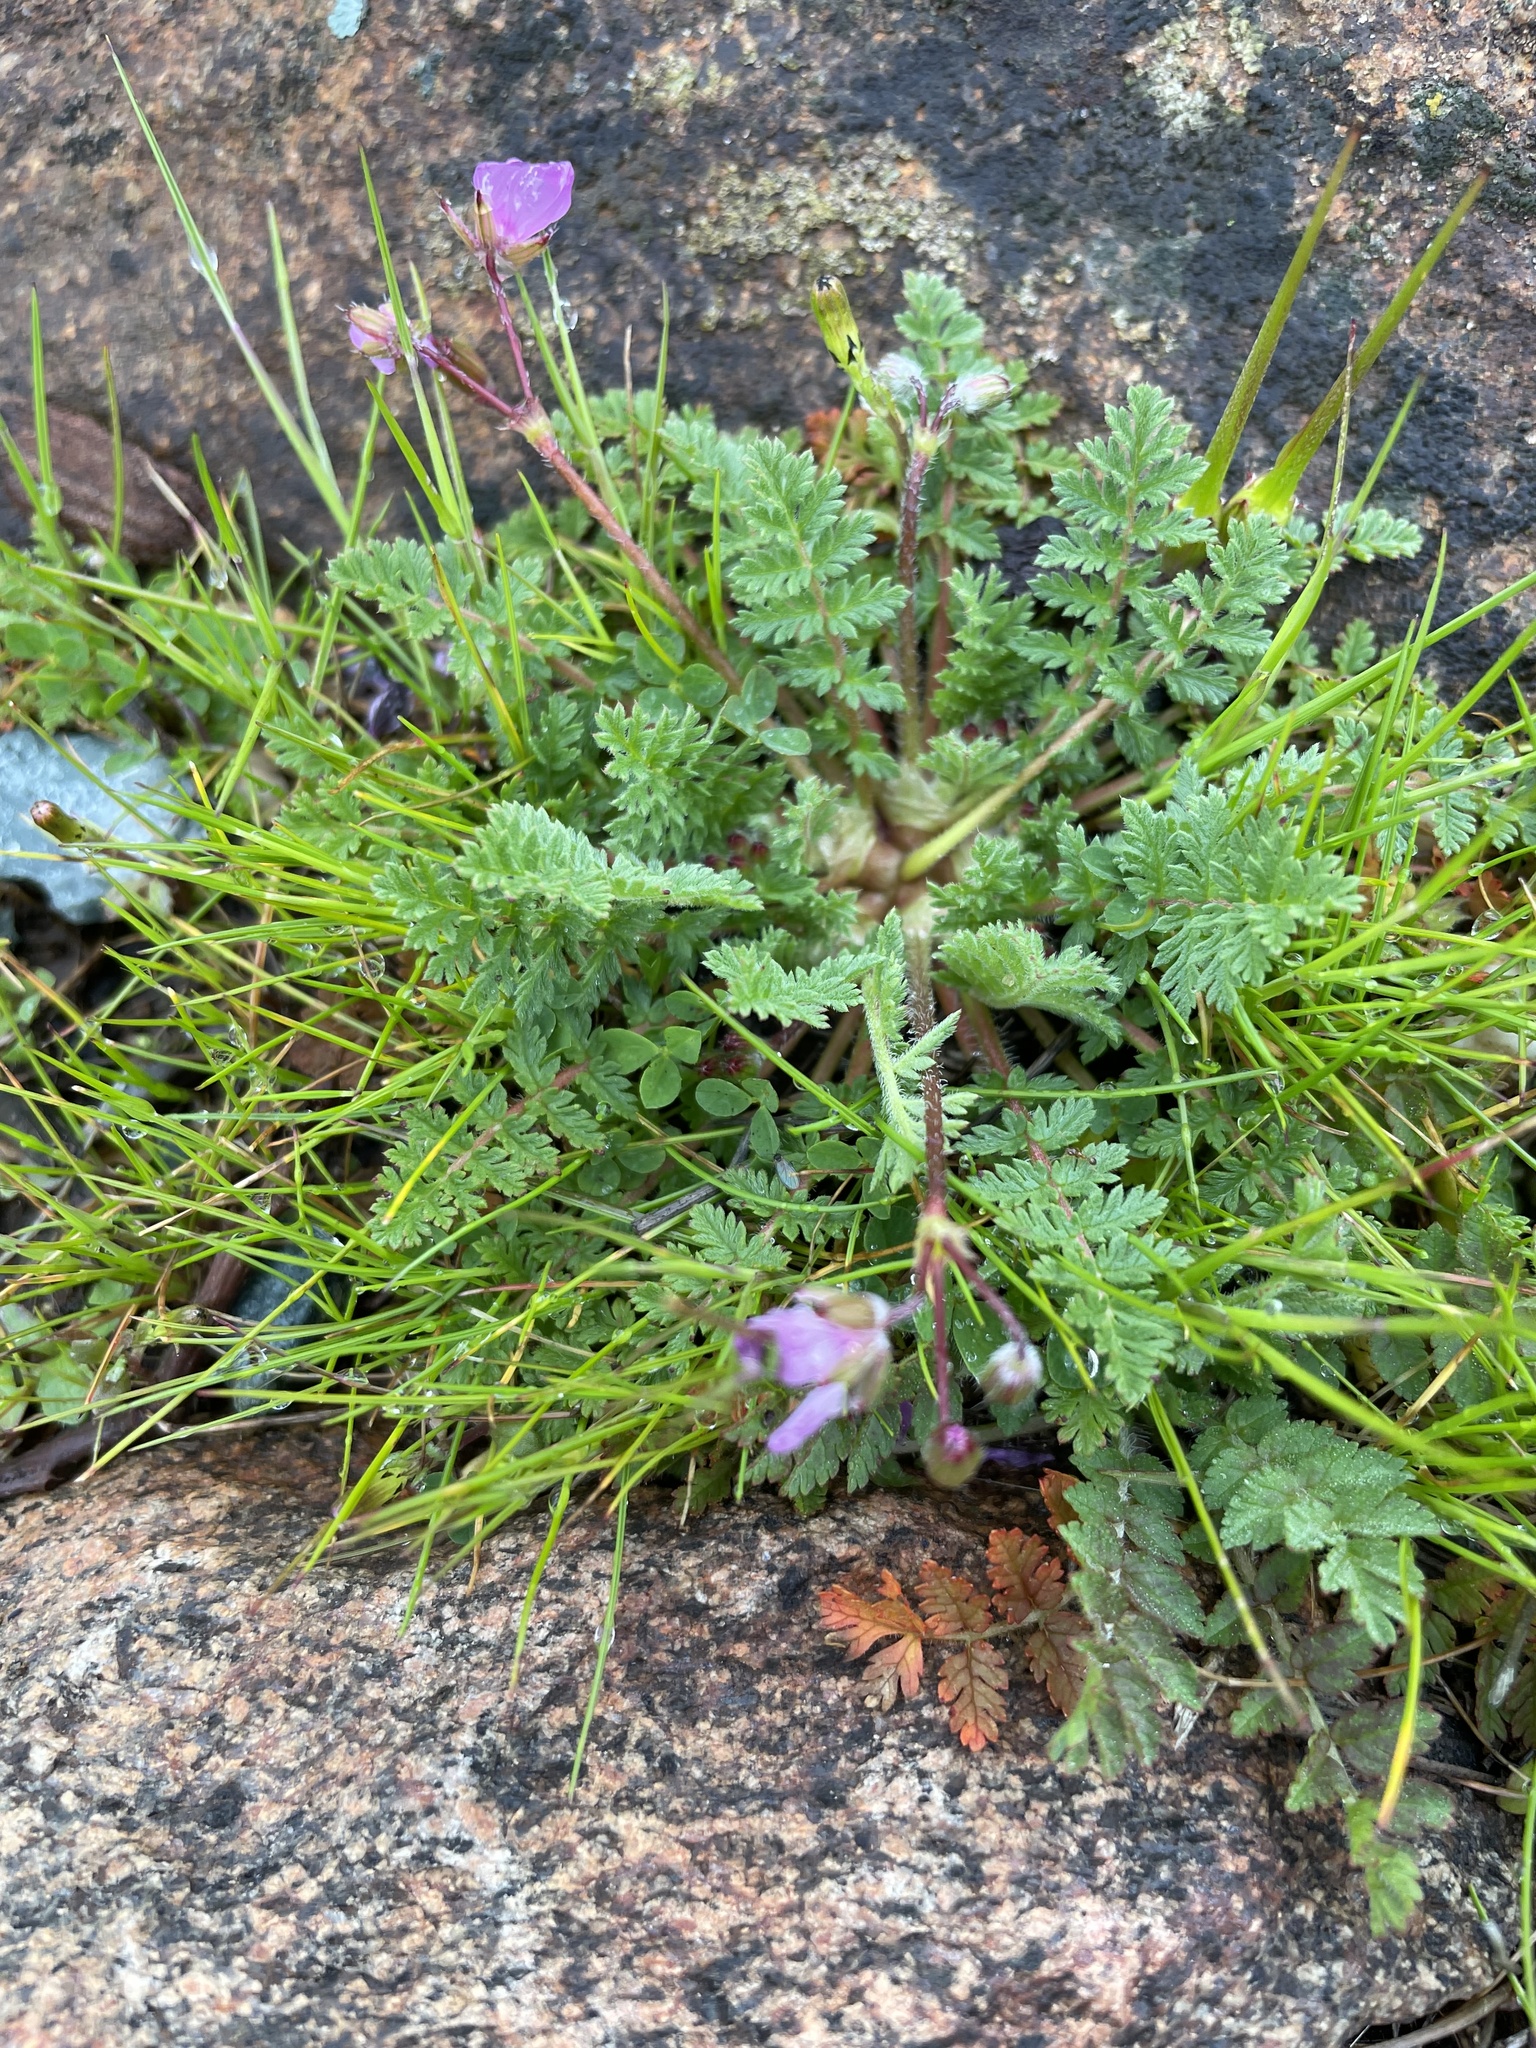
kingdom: Plantae
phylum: Tracheophyta
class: Magnoliopsida
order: Geraniales
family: Geraniaceae
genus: Erodium
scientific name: Erodium cicutarium
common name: Common stork's-bill
